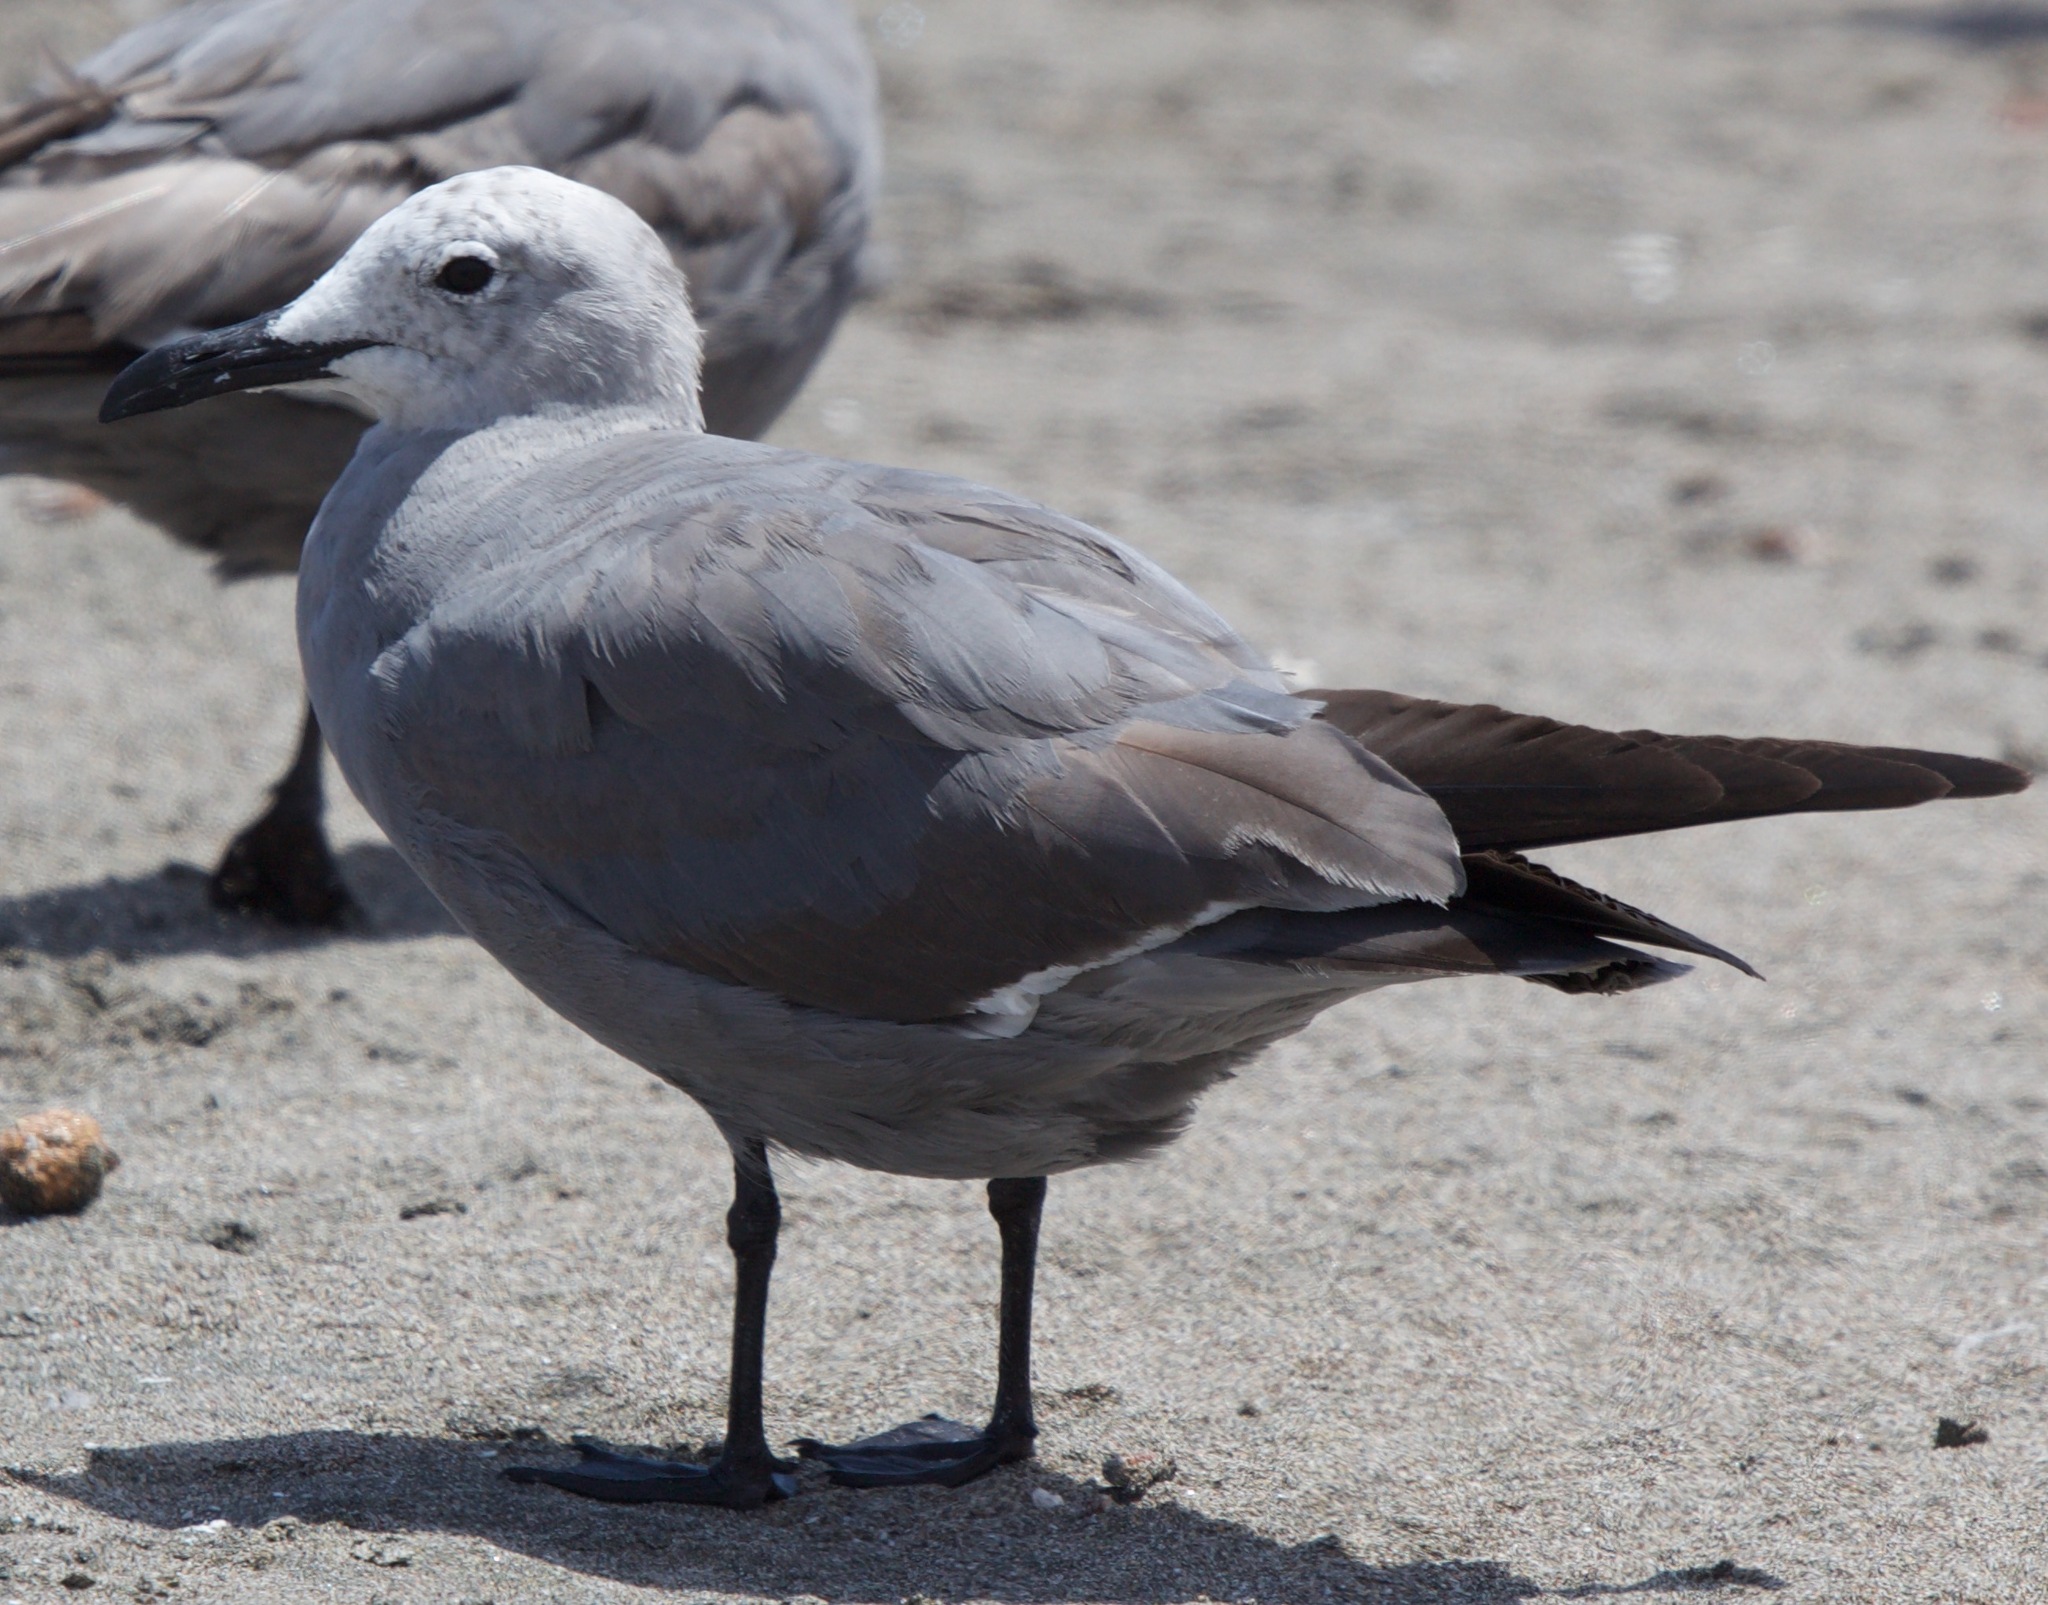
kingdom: Animalia
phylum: Chordata
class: Aves
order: Charadriiformes
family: Laridae
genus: Leucophaeus
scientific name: Leucophaeus modestus
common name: Gray gull
